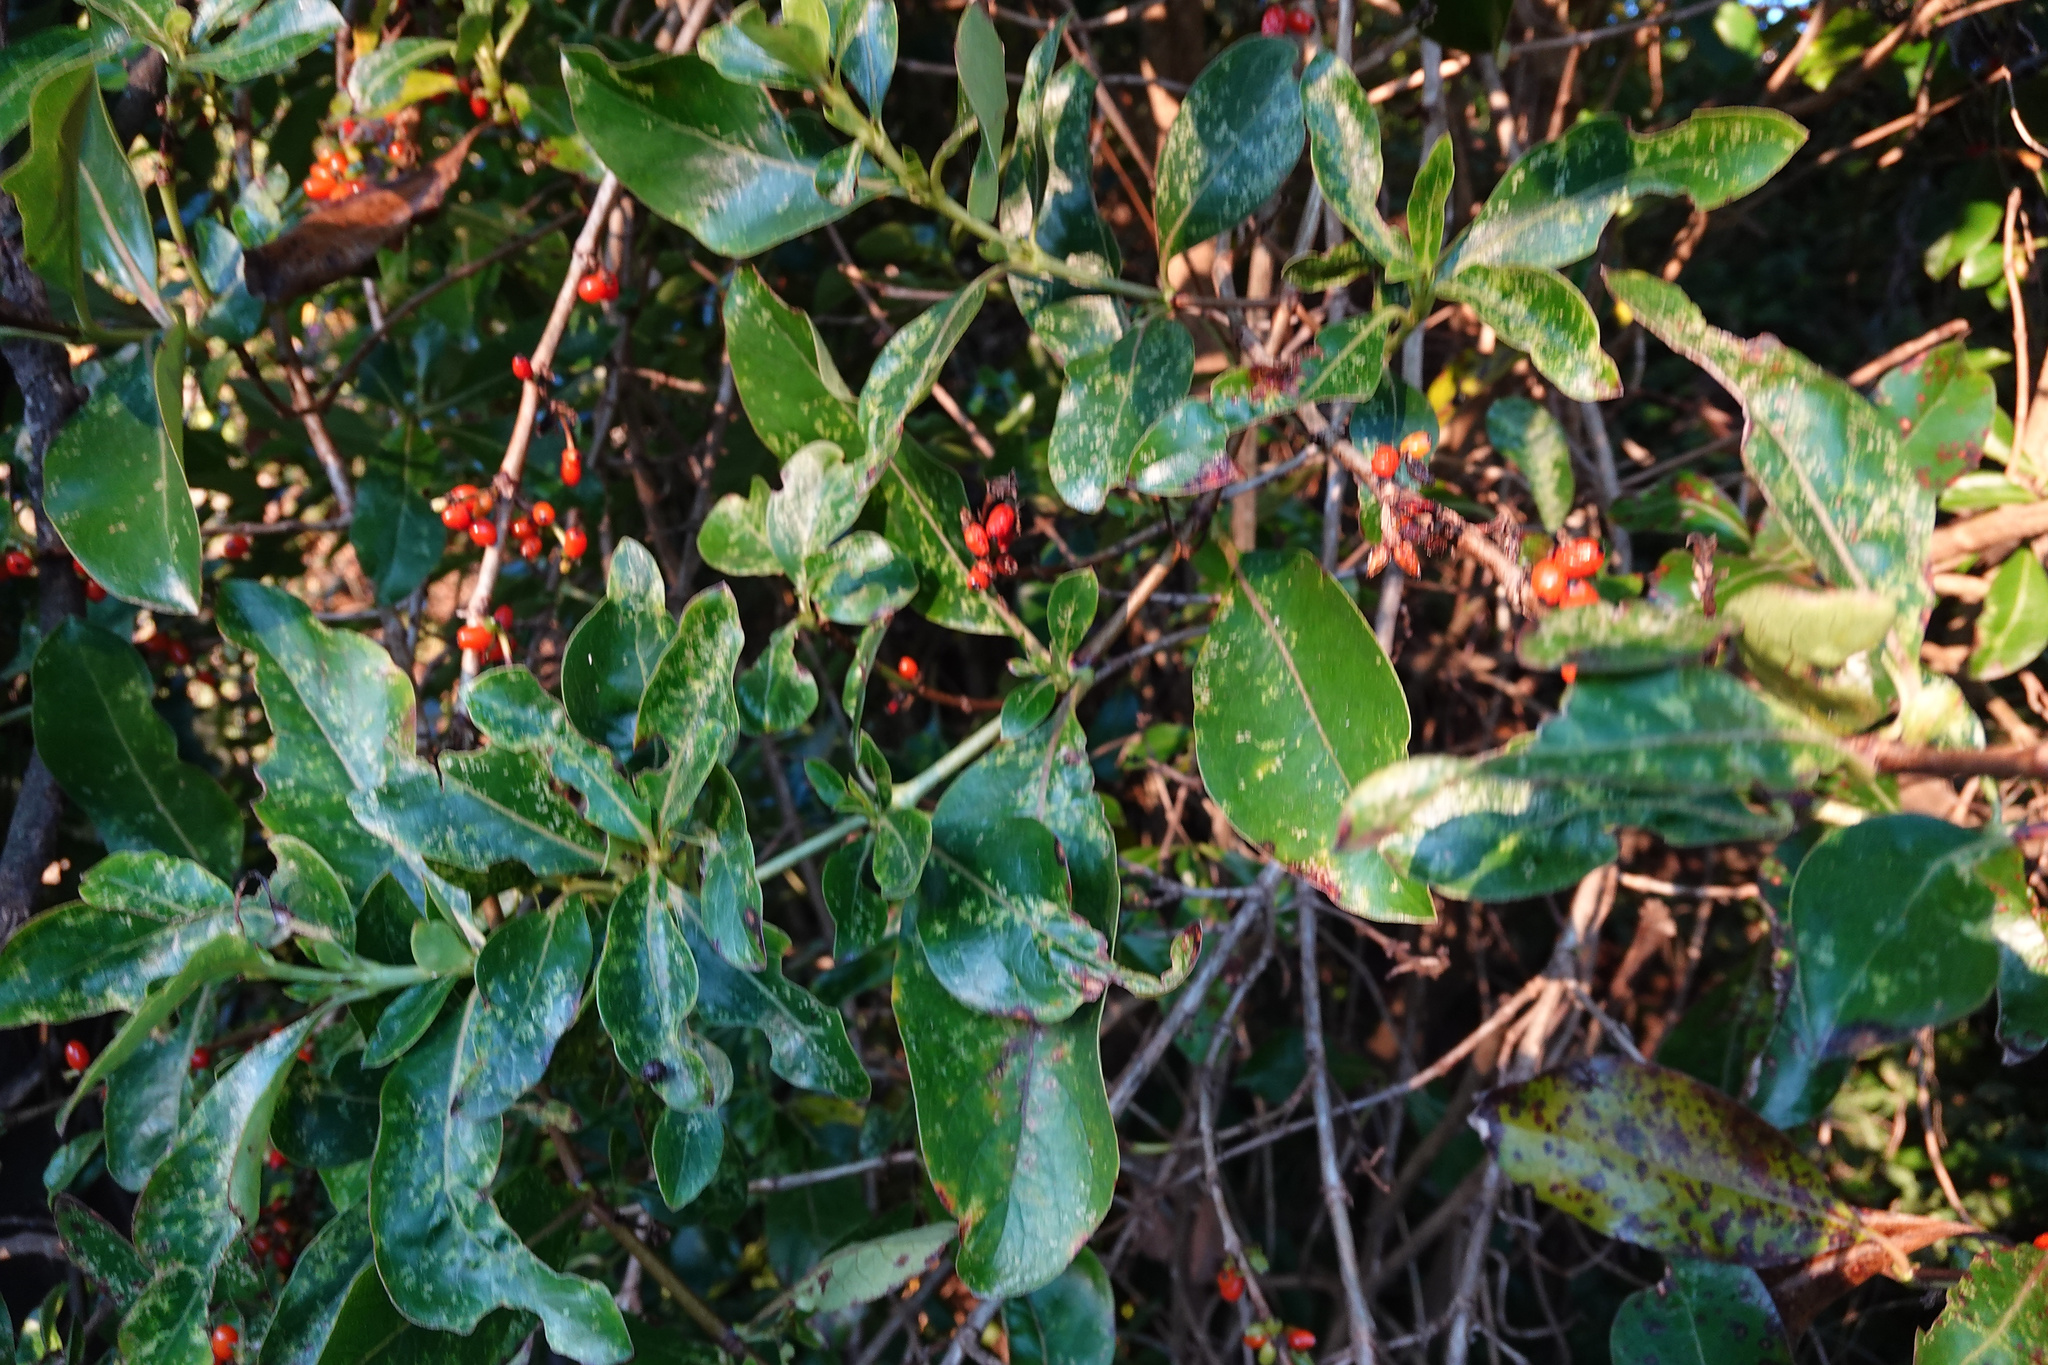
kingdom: Plantae
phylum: Tracheophyta
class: Magnoliopsida
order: Gentianales
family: Rubiaceae
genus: Coprosma
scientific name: Coprosma robusta
